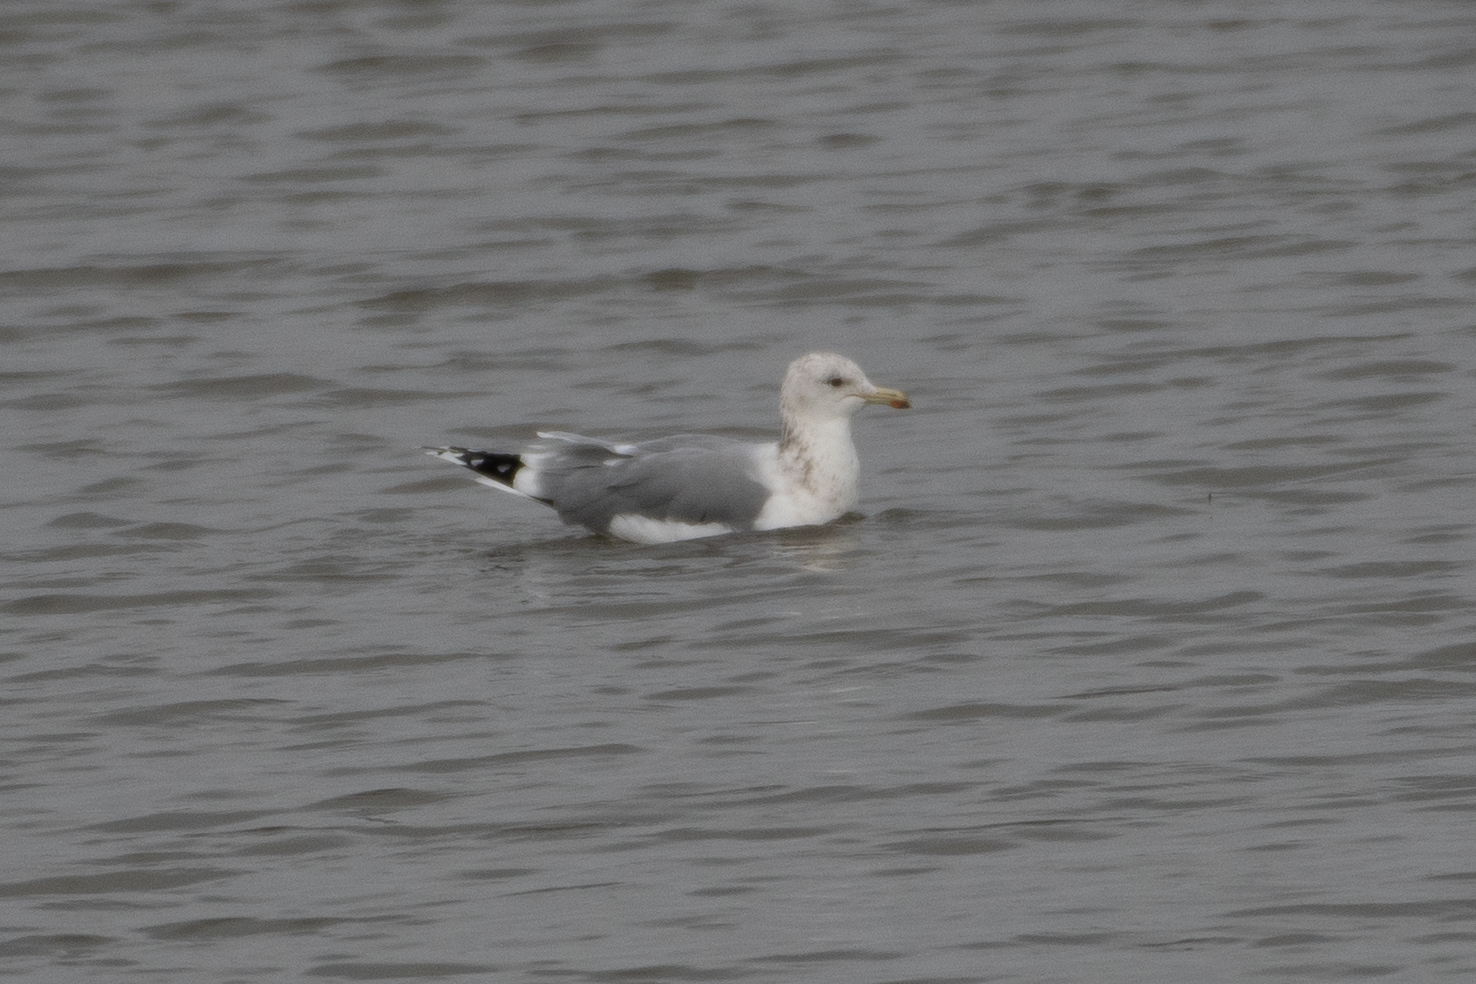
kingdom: Animalia
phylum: Chordata
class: Aves
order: Charadriiformes
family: Laridae
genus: Larus
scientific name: Larus californicus
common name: California gull
